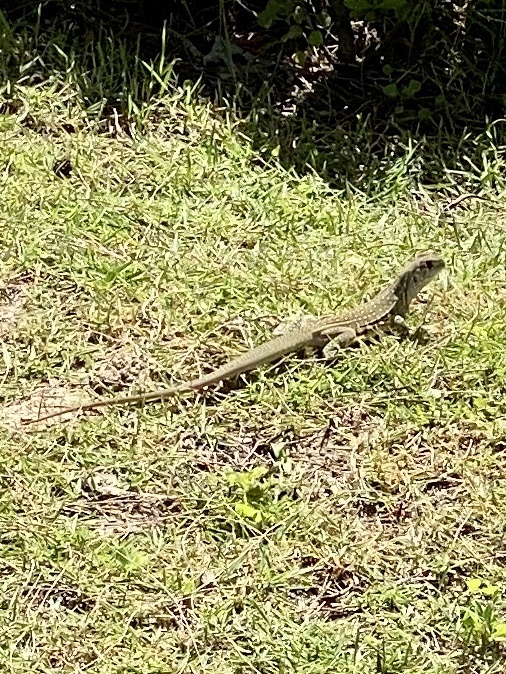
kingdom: Animalia
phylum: Chordata
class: Squamata
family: Agamidae
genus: Leiolepis
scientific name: Leiolepis belliana
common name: Common butterfly lizard
